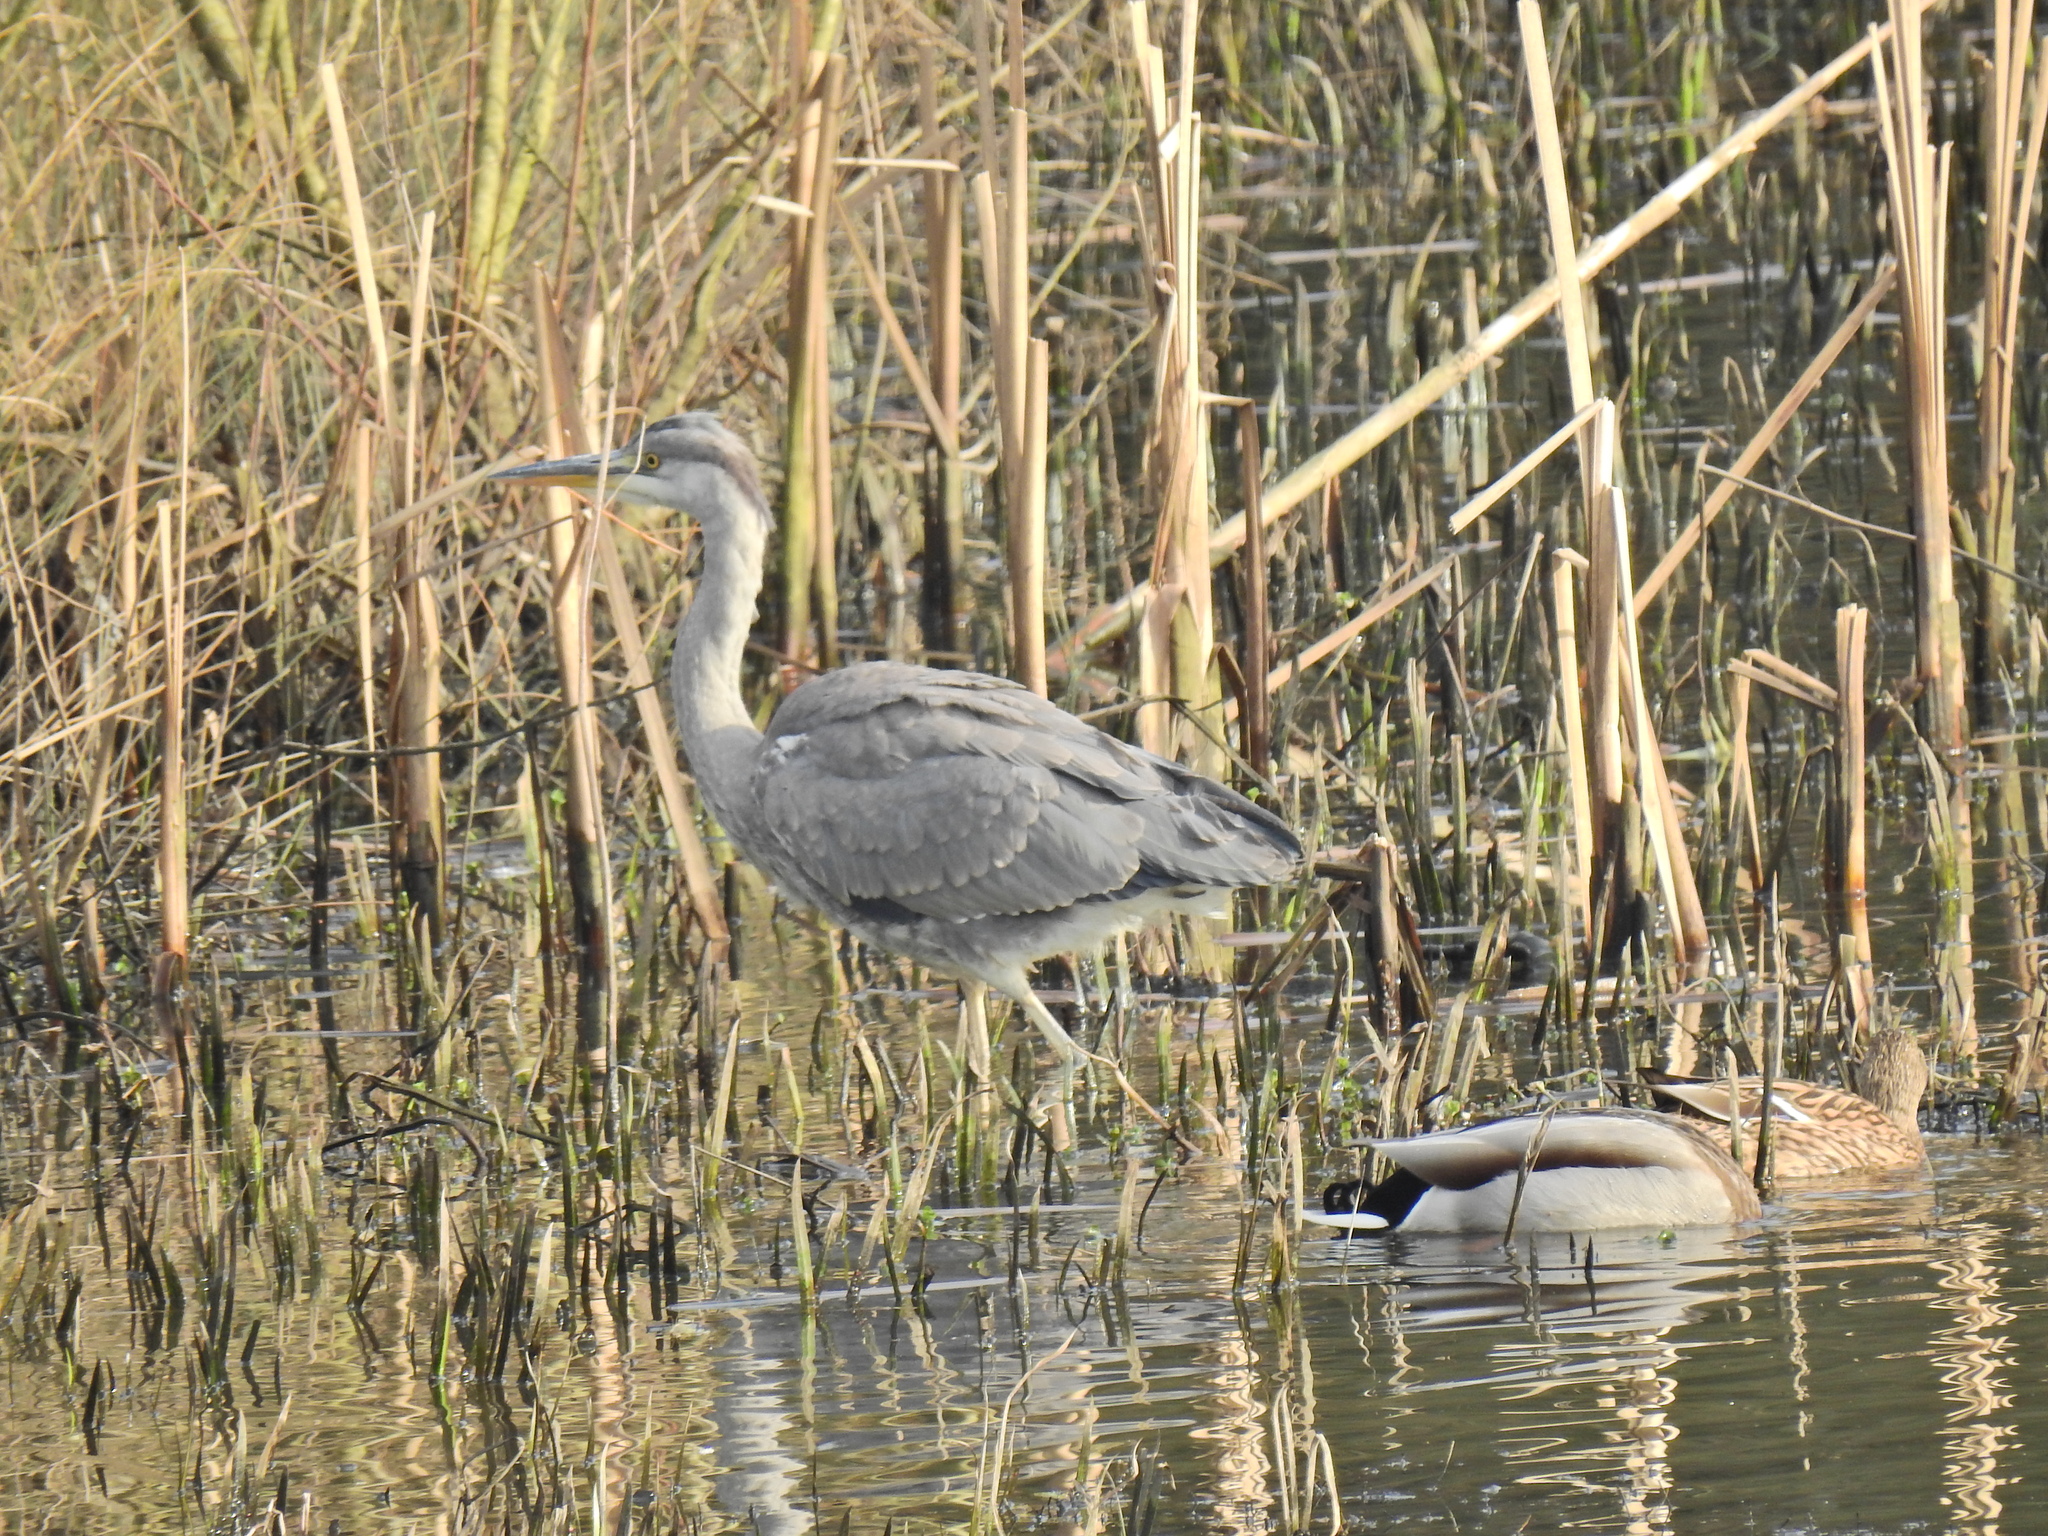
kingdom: Animalia
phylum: Chordata
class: Aves
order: Pelecaniformes
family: Ardeidae
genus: Ardea
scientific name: Ardea cinerea
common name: Grey heron
